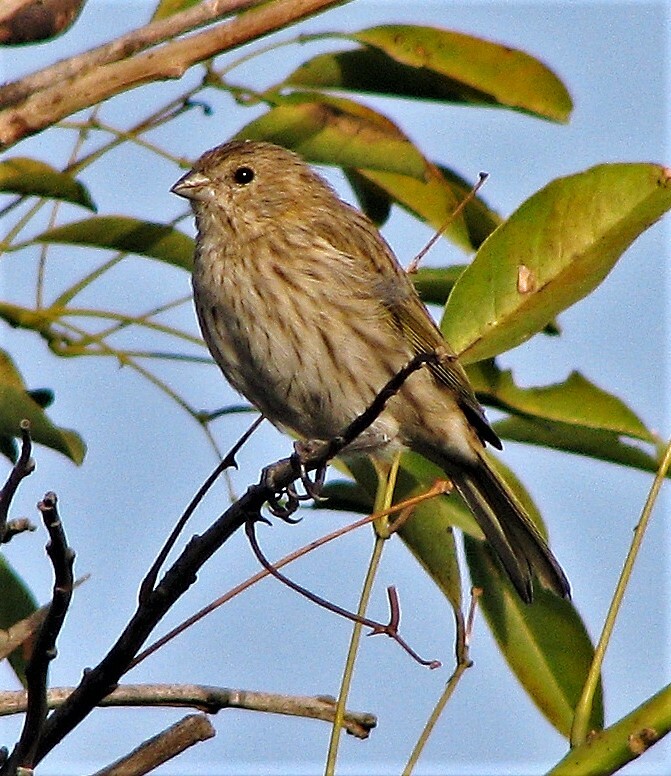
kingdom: Animalia
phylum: Chordata
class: Aves
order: Passeriformes
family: Thraupidae
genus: Sicalis
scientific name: Sicalis flaveola
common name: Saffron finch
